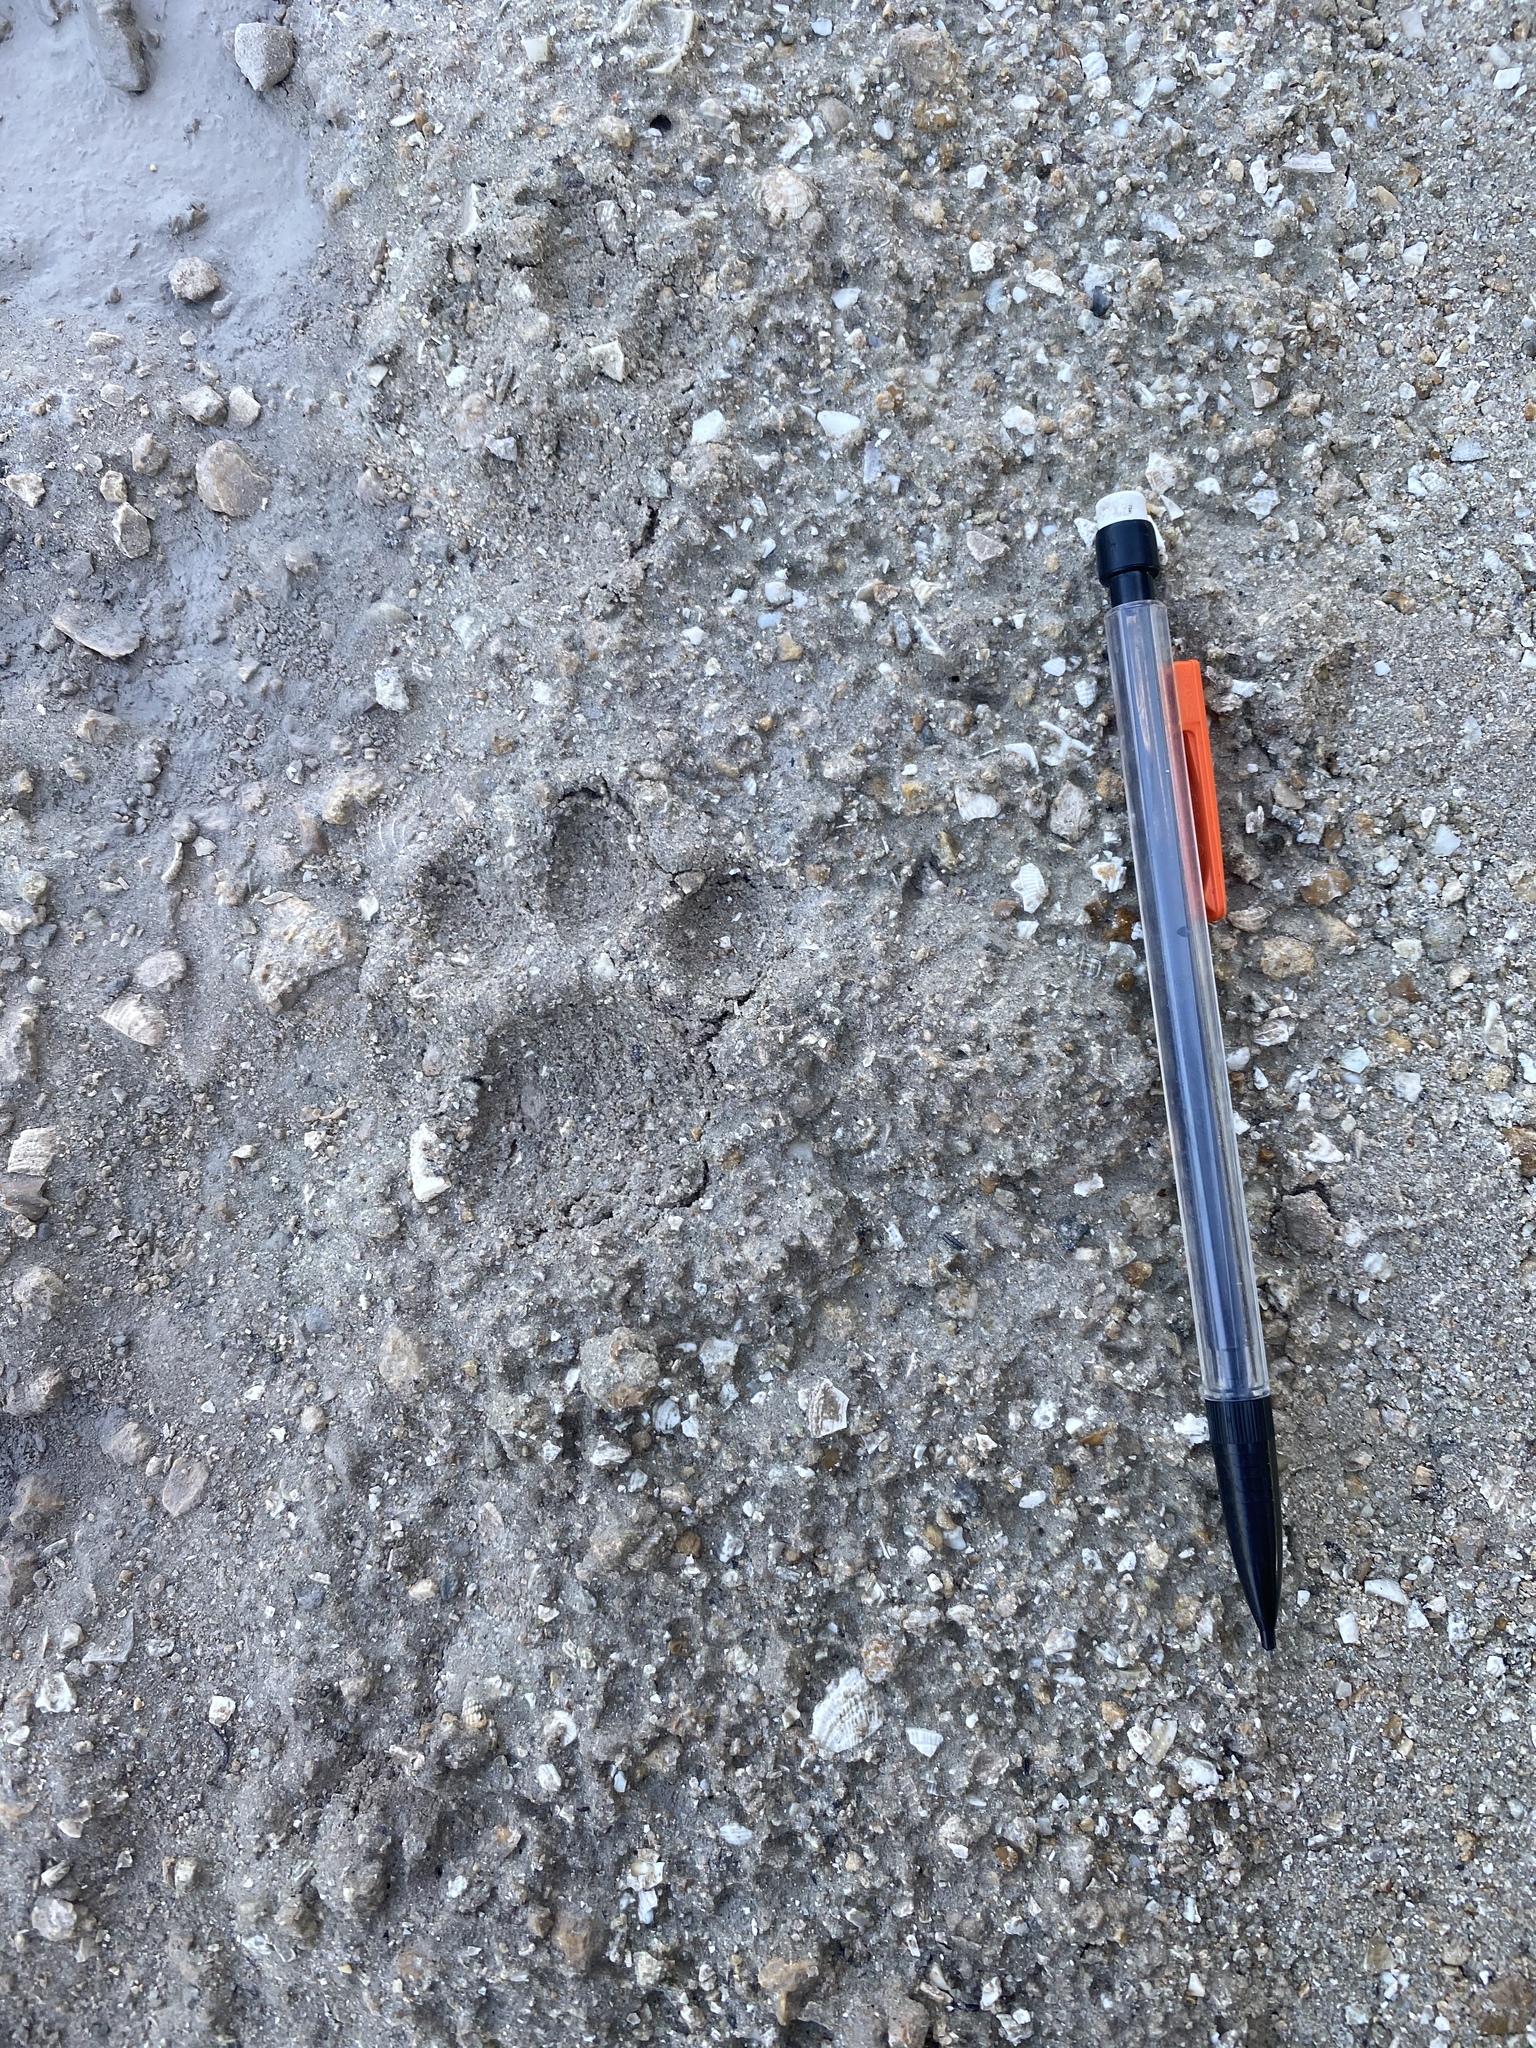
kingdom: Animalia
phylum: Chordata
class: Mammalia
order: Carnivora
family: Felidae
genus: Lynx
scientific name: Lynx rufus
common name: Bobcat
